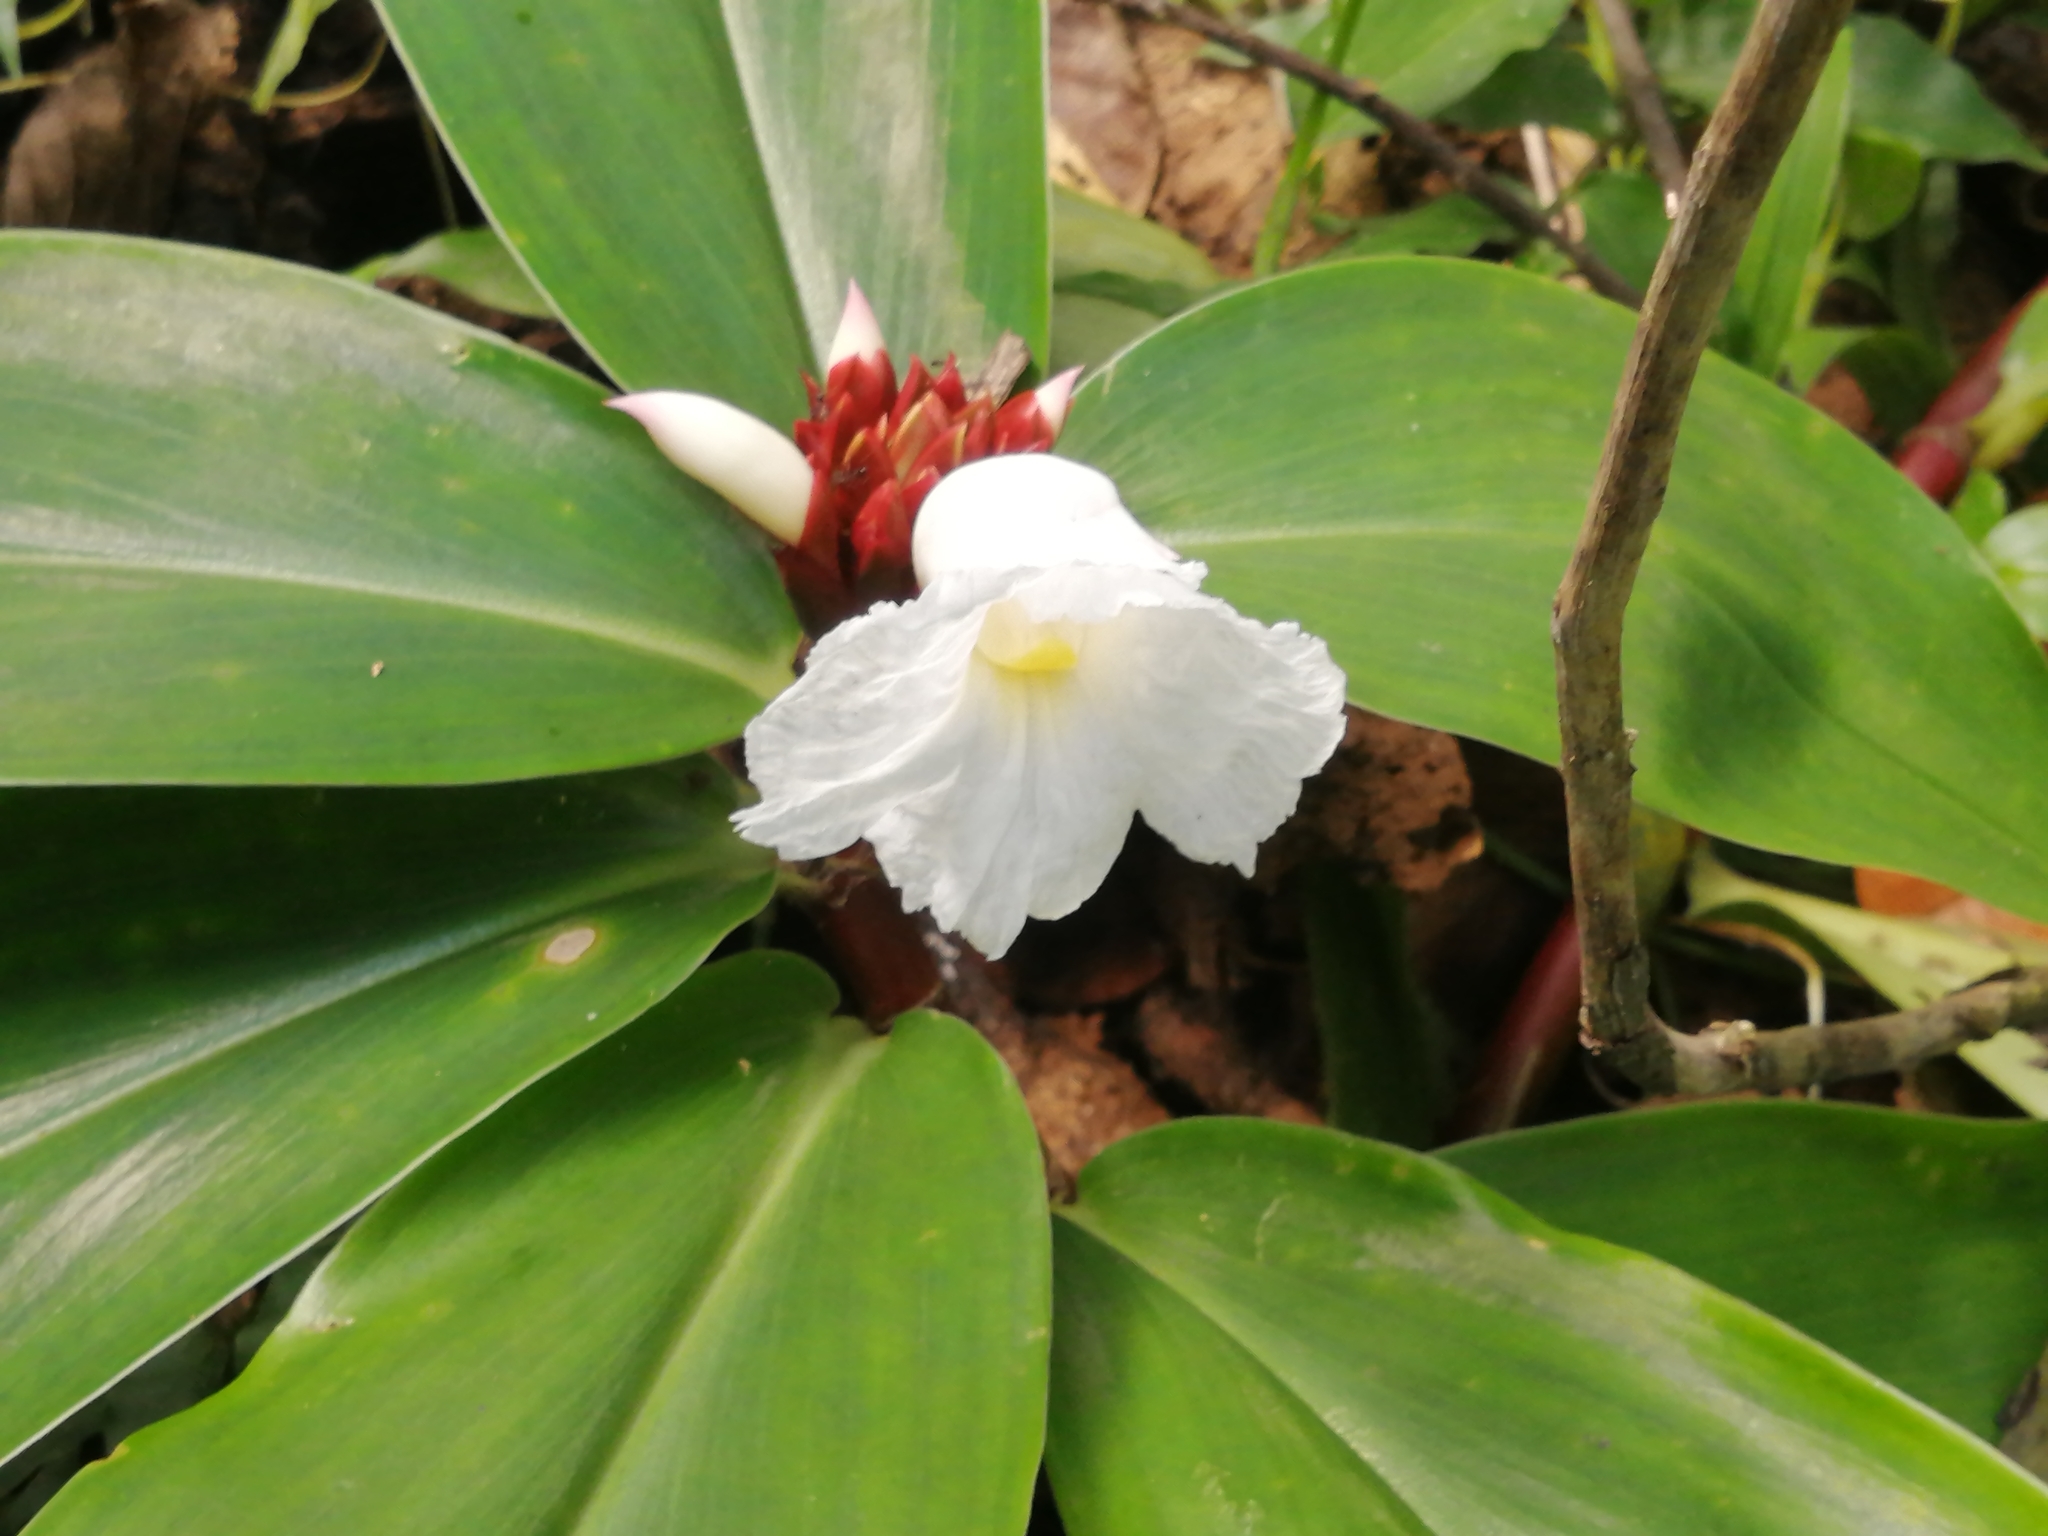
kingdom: Plantae
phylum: Tracheophyta
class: Liliopsida
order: Zingiberales
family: Costaceae
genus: Hellenia
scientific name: Hellenia speciosa
